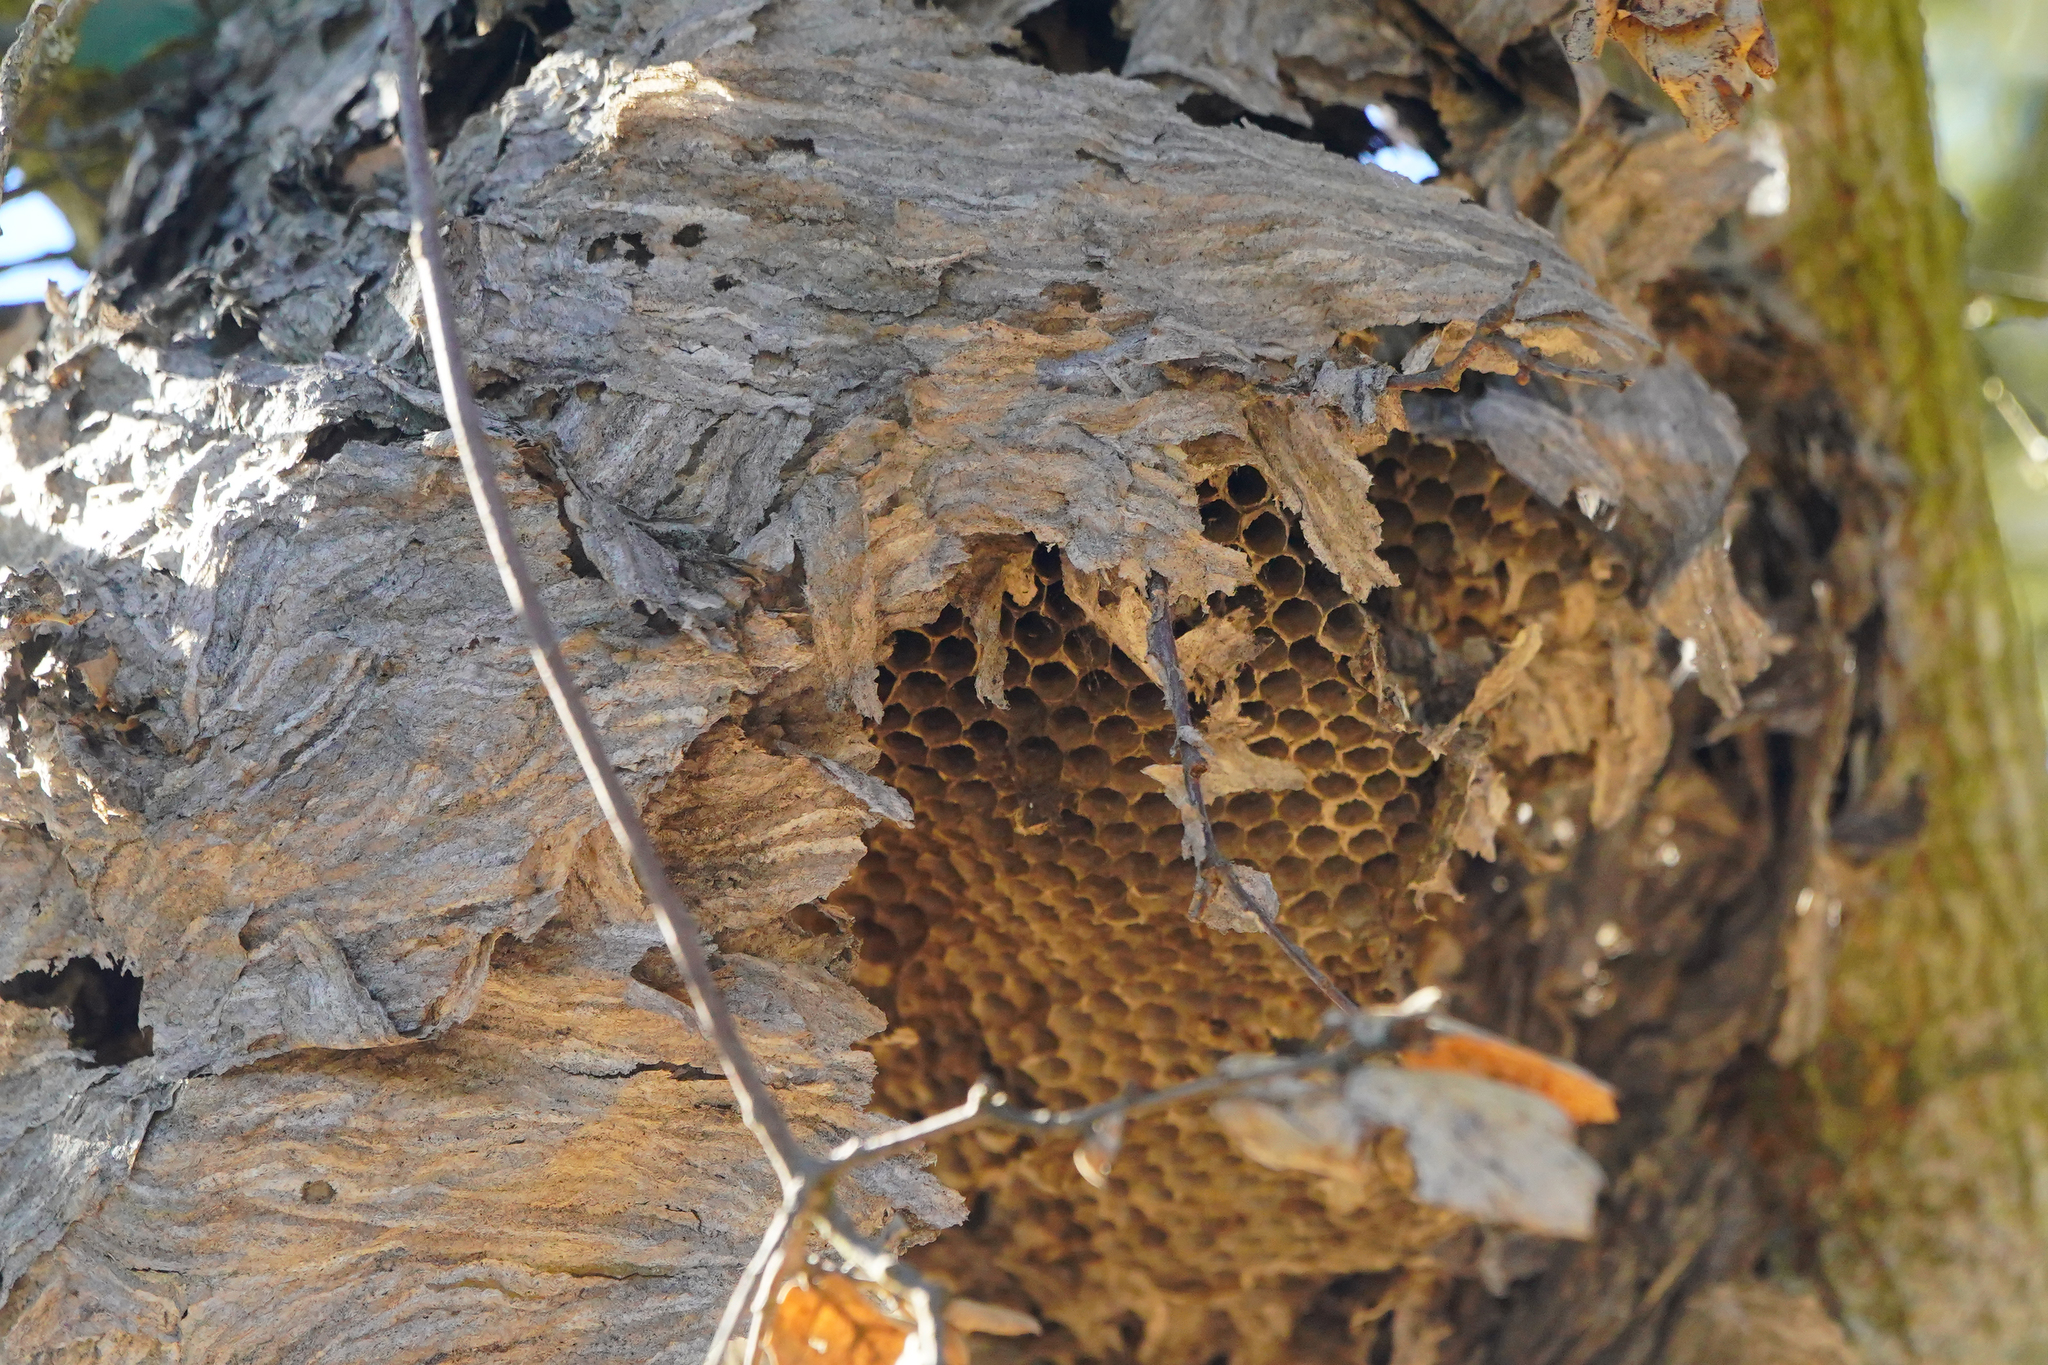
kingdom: Animalia
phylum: Arthropoda
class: Insecta
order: Hymenoptera
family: Vespidae
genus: Dolichovespula
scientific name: Dolichovespula
